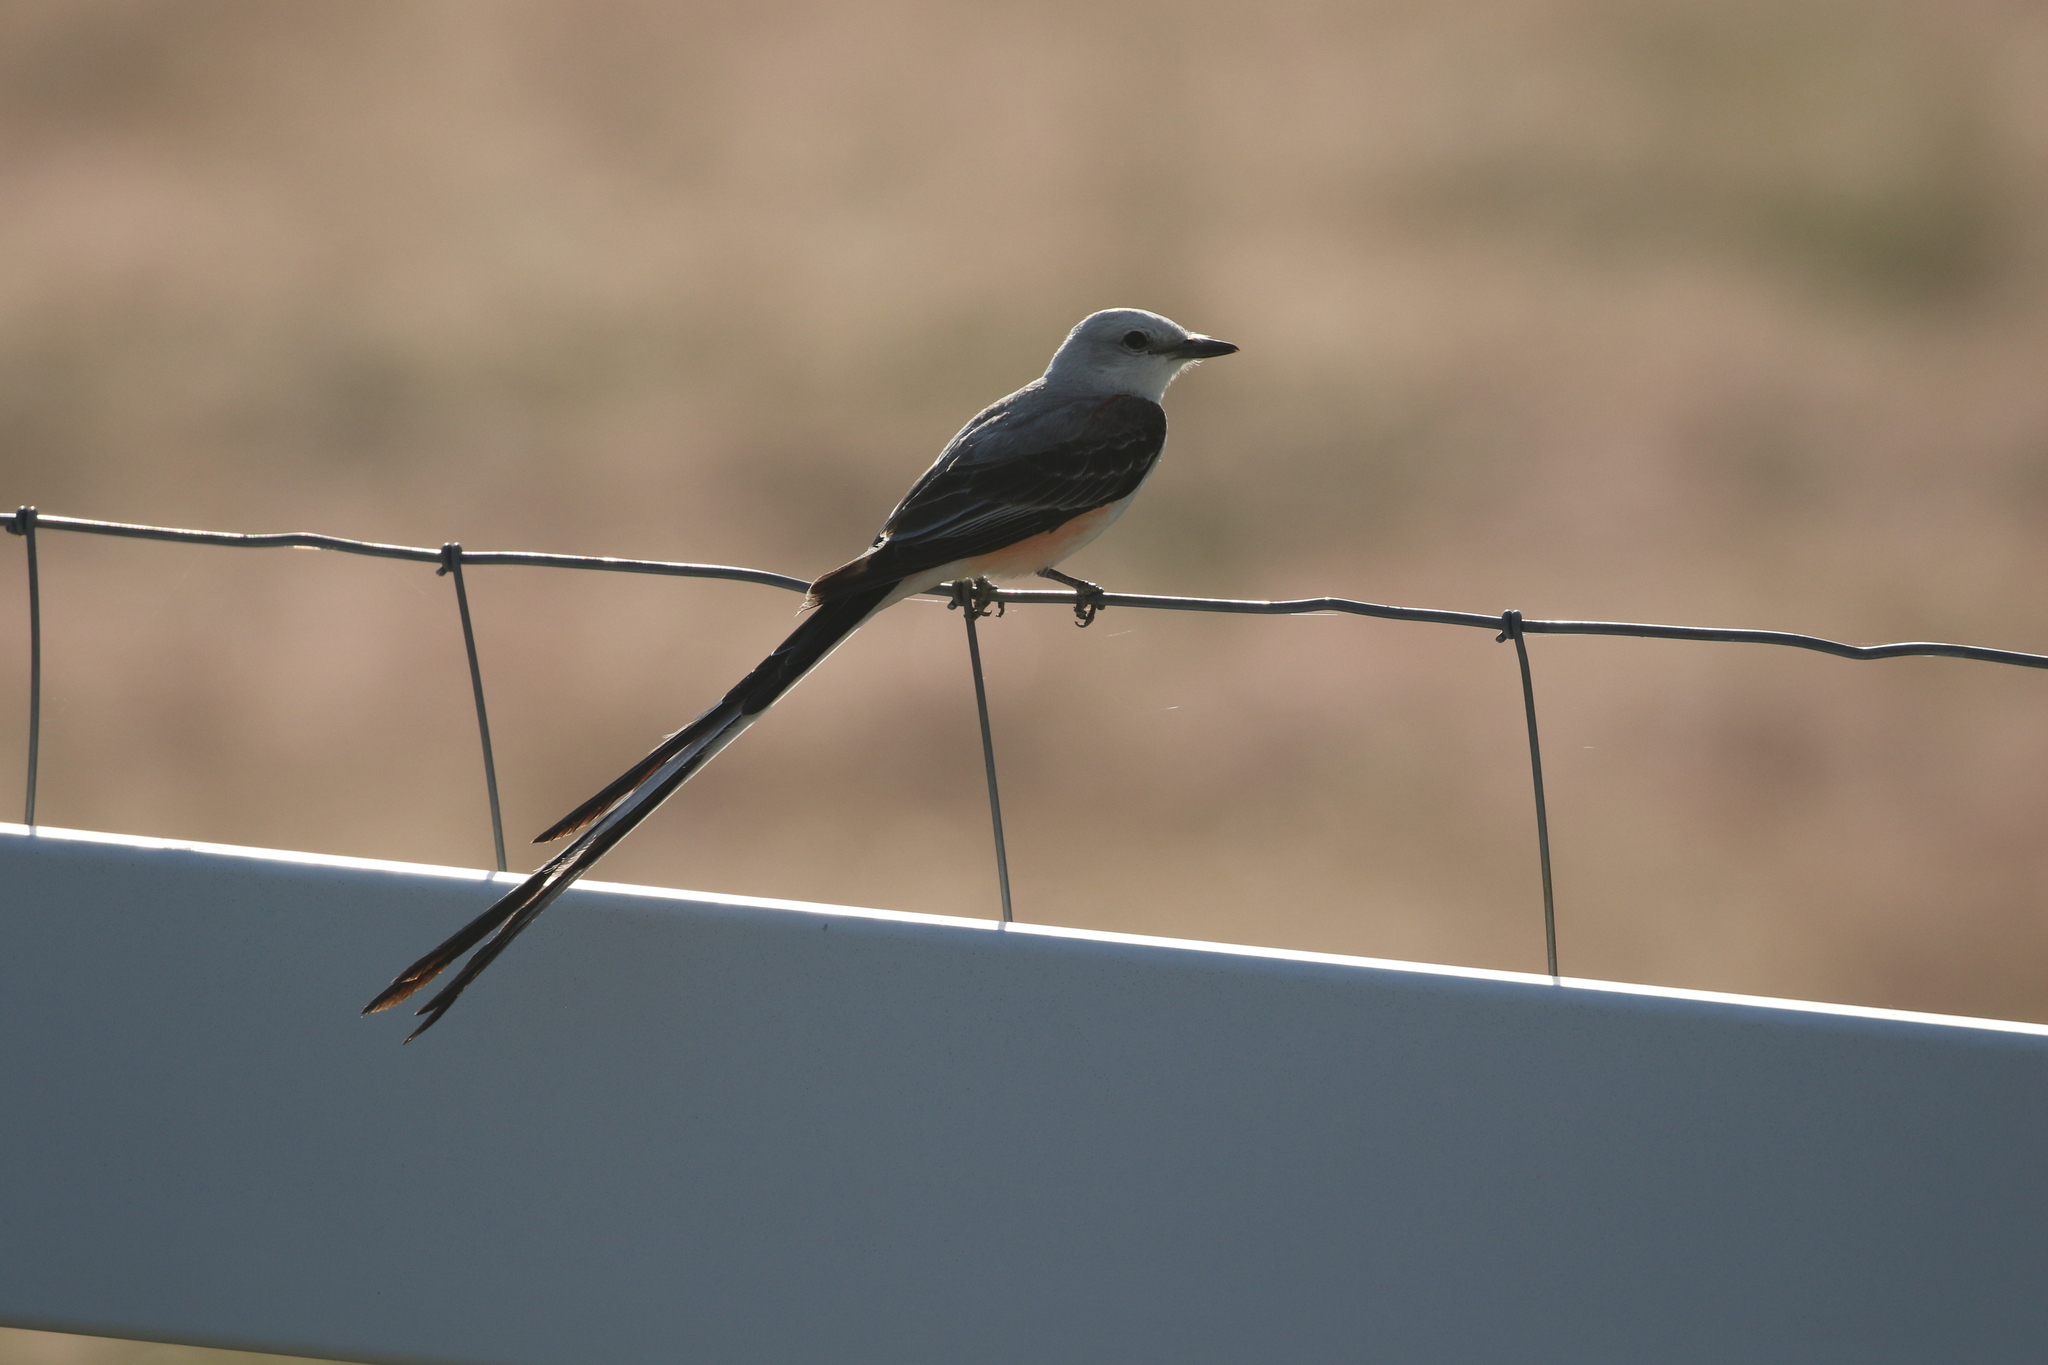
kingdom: Animalia
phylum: Chordata
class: Aves
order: Passeriformes
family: Tyrannidae
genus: Tyrannus
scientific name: Tyrannus forficatus
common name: Scissor-tailed flycatcher
